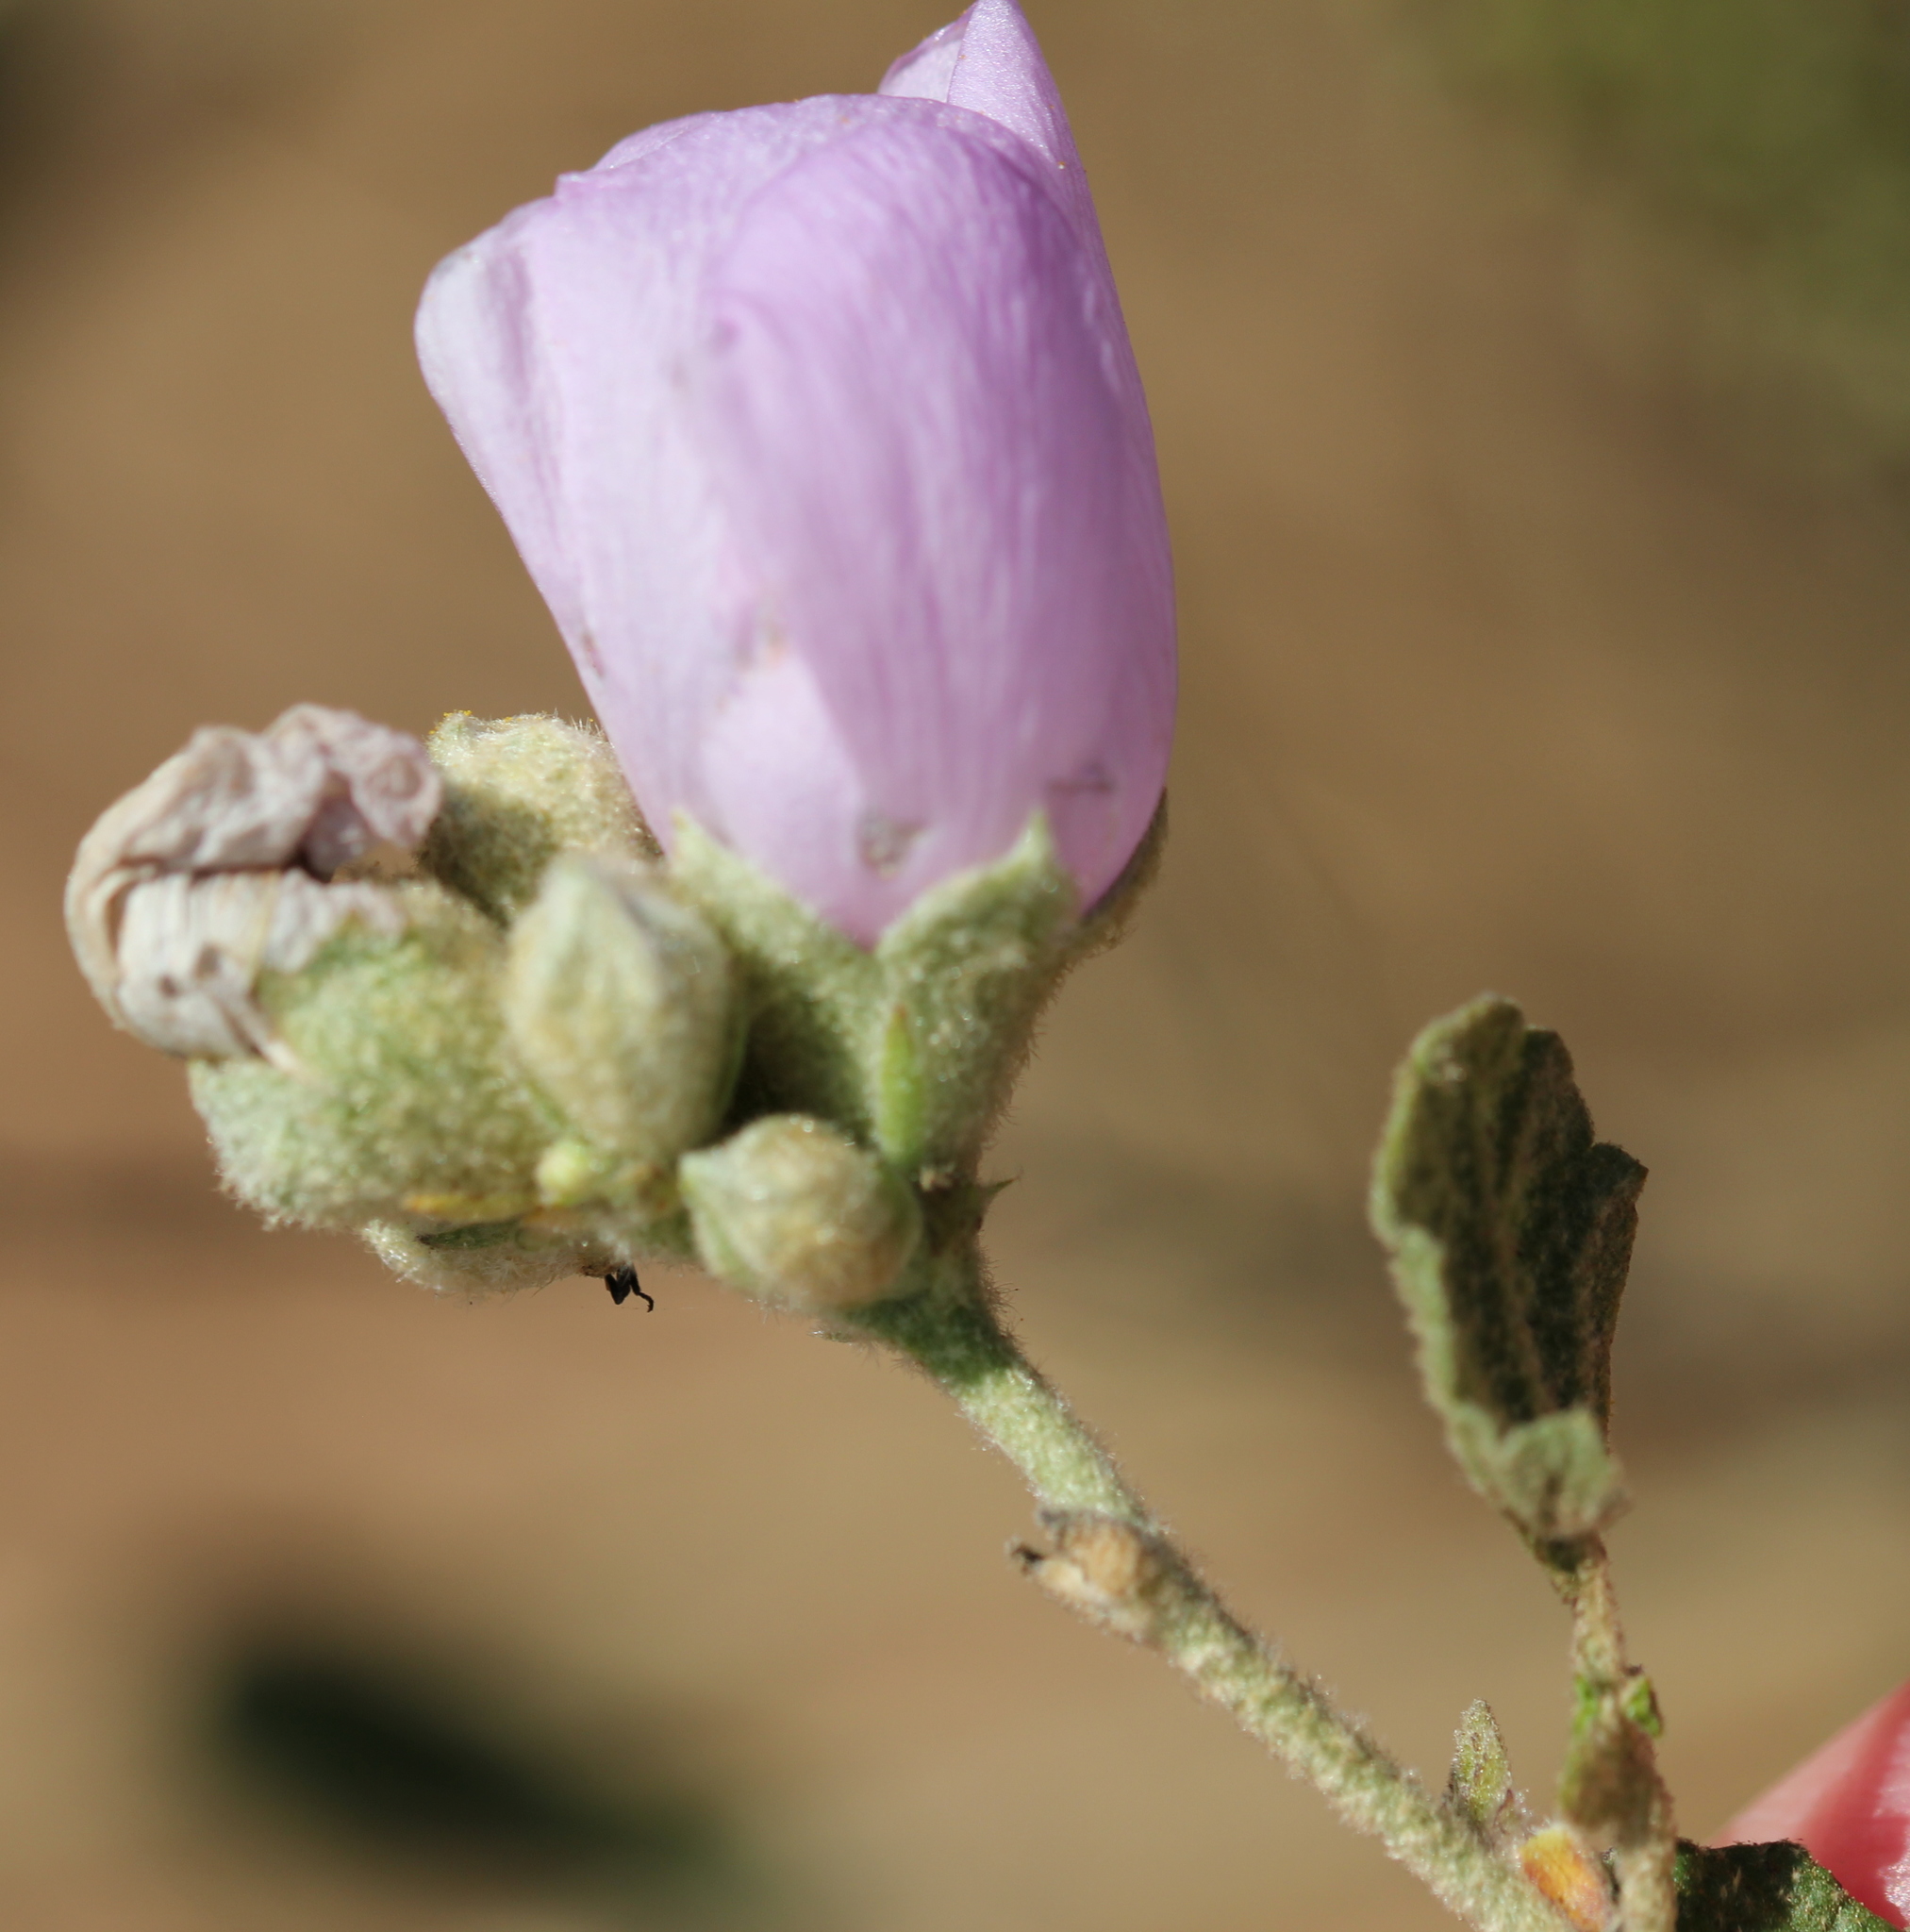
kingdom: Plantae
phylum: Tracheophyta
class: Magnoliopsida
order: Malvales
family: Malvaceae
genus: Malacothamnus
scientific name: Malacothamnus fasciculatus
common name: Sant cruz island bush-mallow
